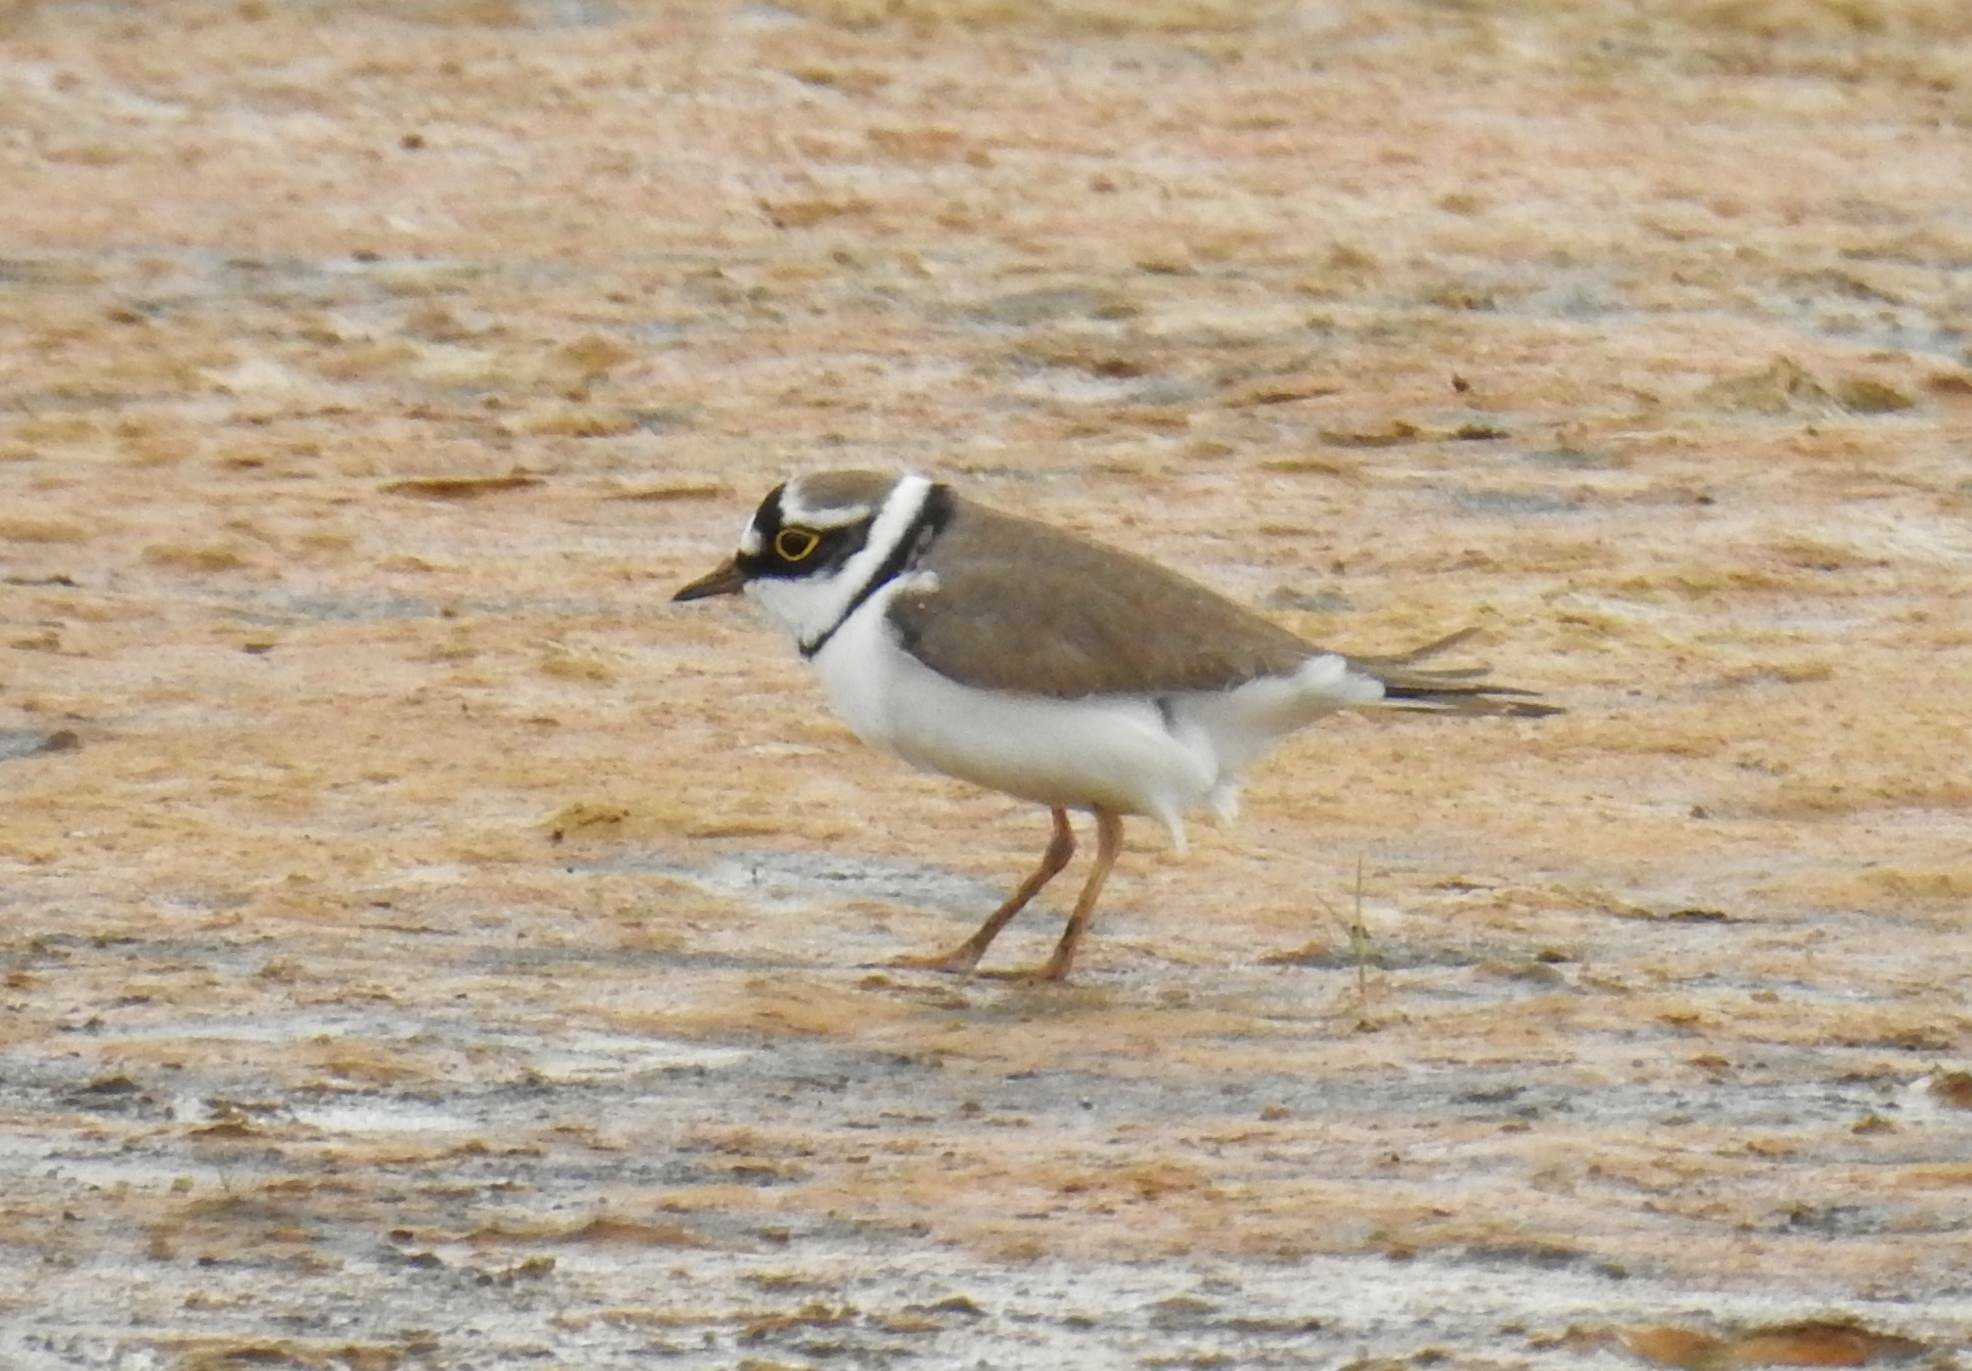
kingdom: Animalia
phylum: Chordata
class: Aves
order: Charadriiformes
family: Charadriidae
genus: Charadrius
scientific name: Charadrius dubius
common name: Little ringed plover
